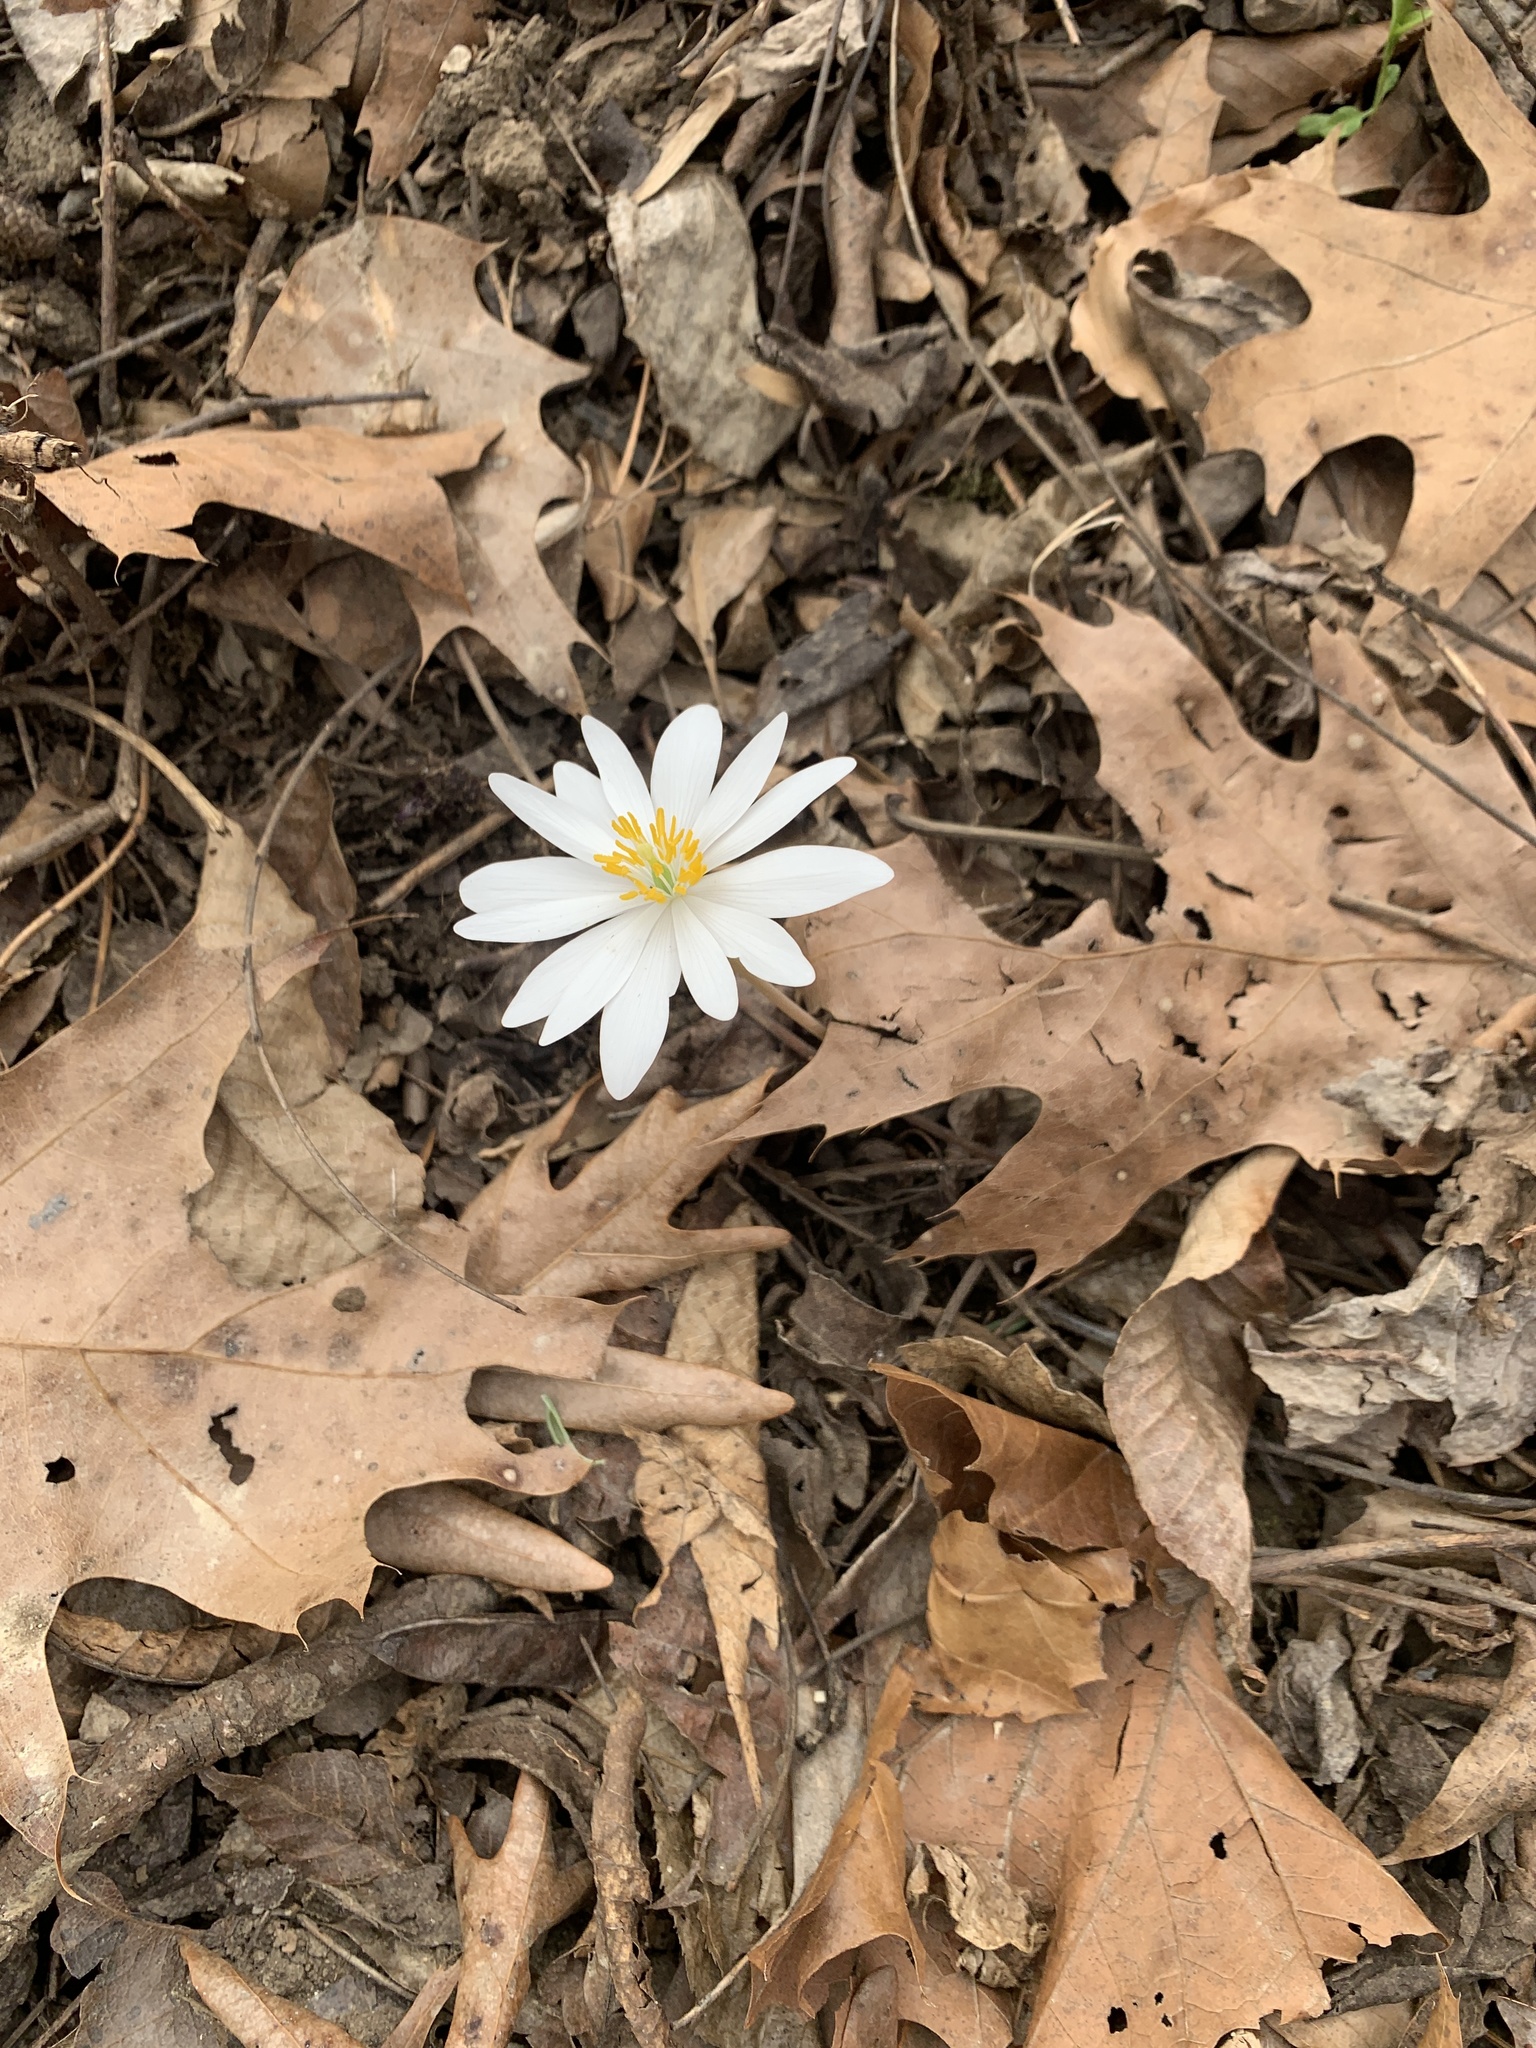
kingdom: Plantae
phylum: Tracheophyta
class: Magnoliopsida
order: Ranunculales
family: Papaveraceae
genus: Sanguinaria
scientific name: Sanguinaria canadensis
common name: Bloodroot
